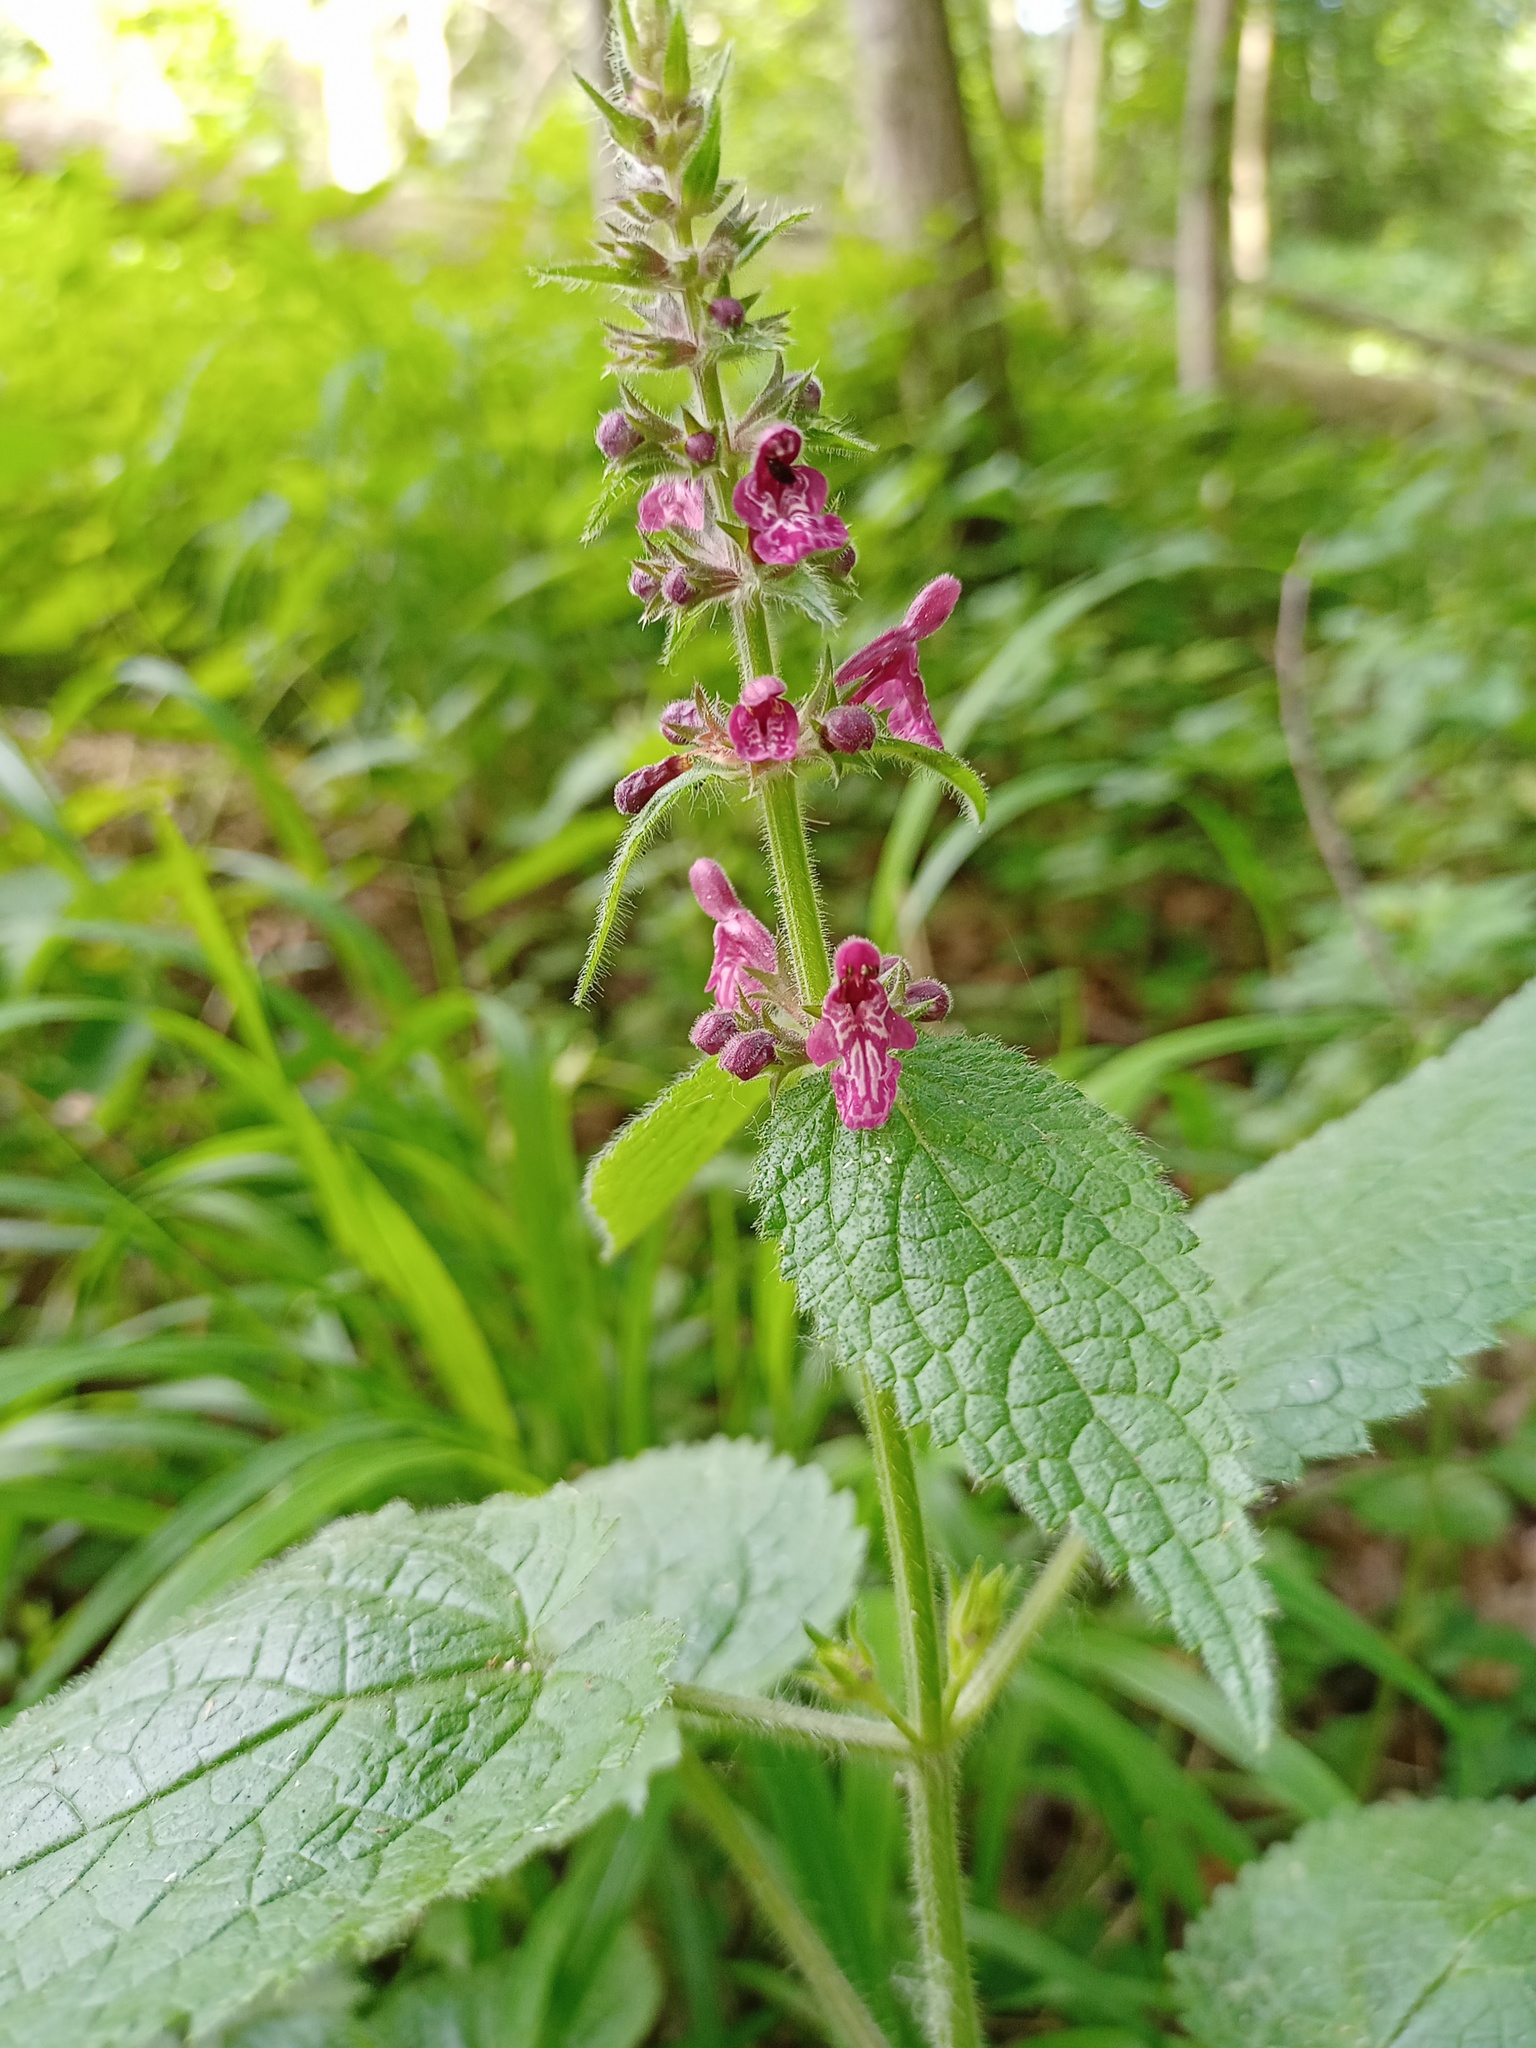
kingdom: Plantae
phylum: Tracheophyta
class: Magnoliopsida
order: Lamiales
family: Lamiaceae
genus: Stachys
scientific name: Stachys sylvatica
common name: Hedge woundwort
